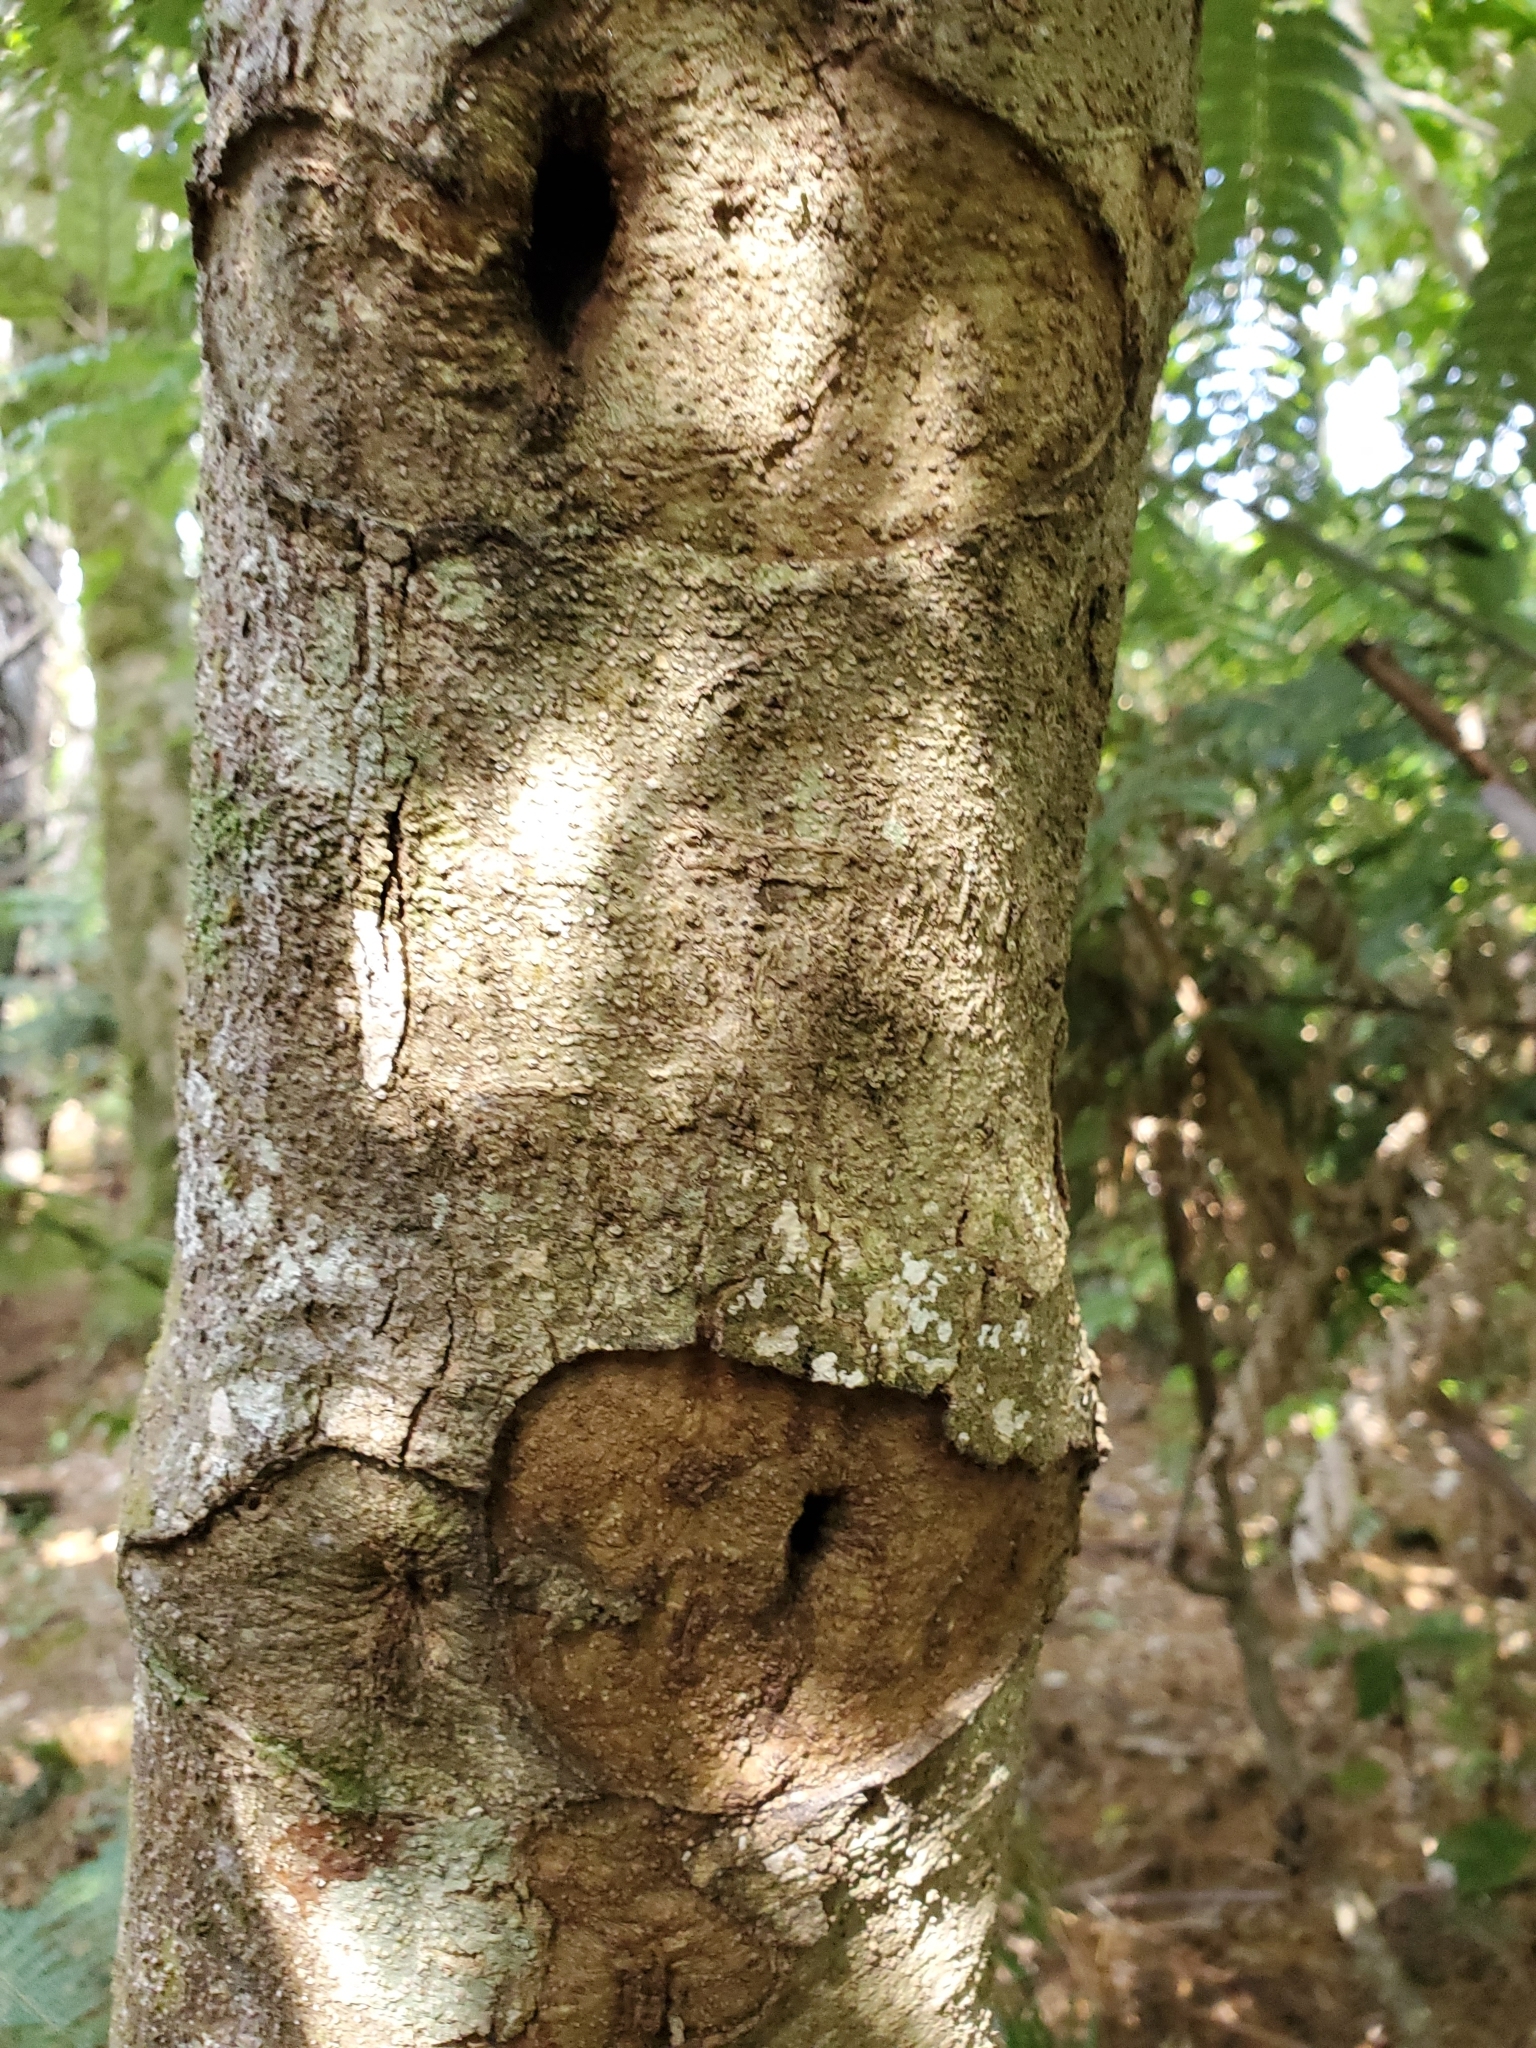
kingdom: Animalia
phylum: Arthropoda
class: Insecta
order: Lepidoptera
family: Hepialidae
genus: Aenetus
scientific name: Aenetus virescens
